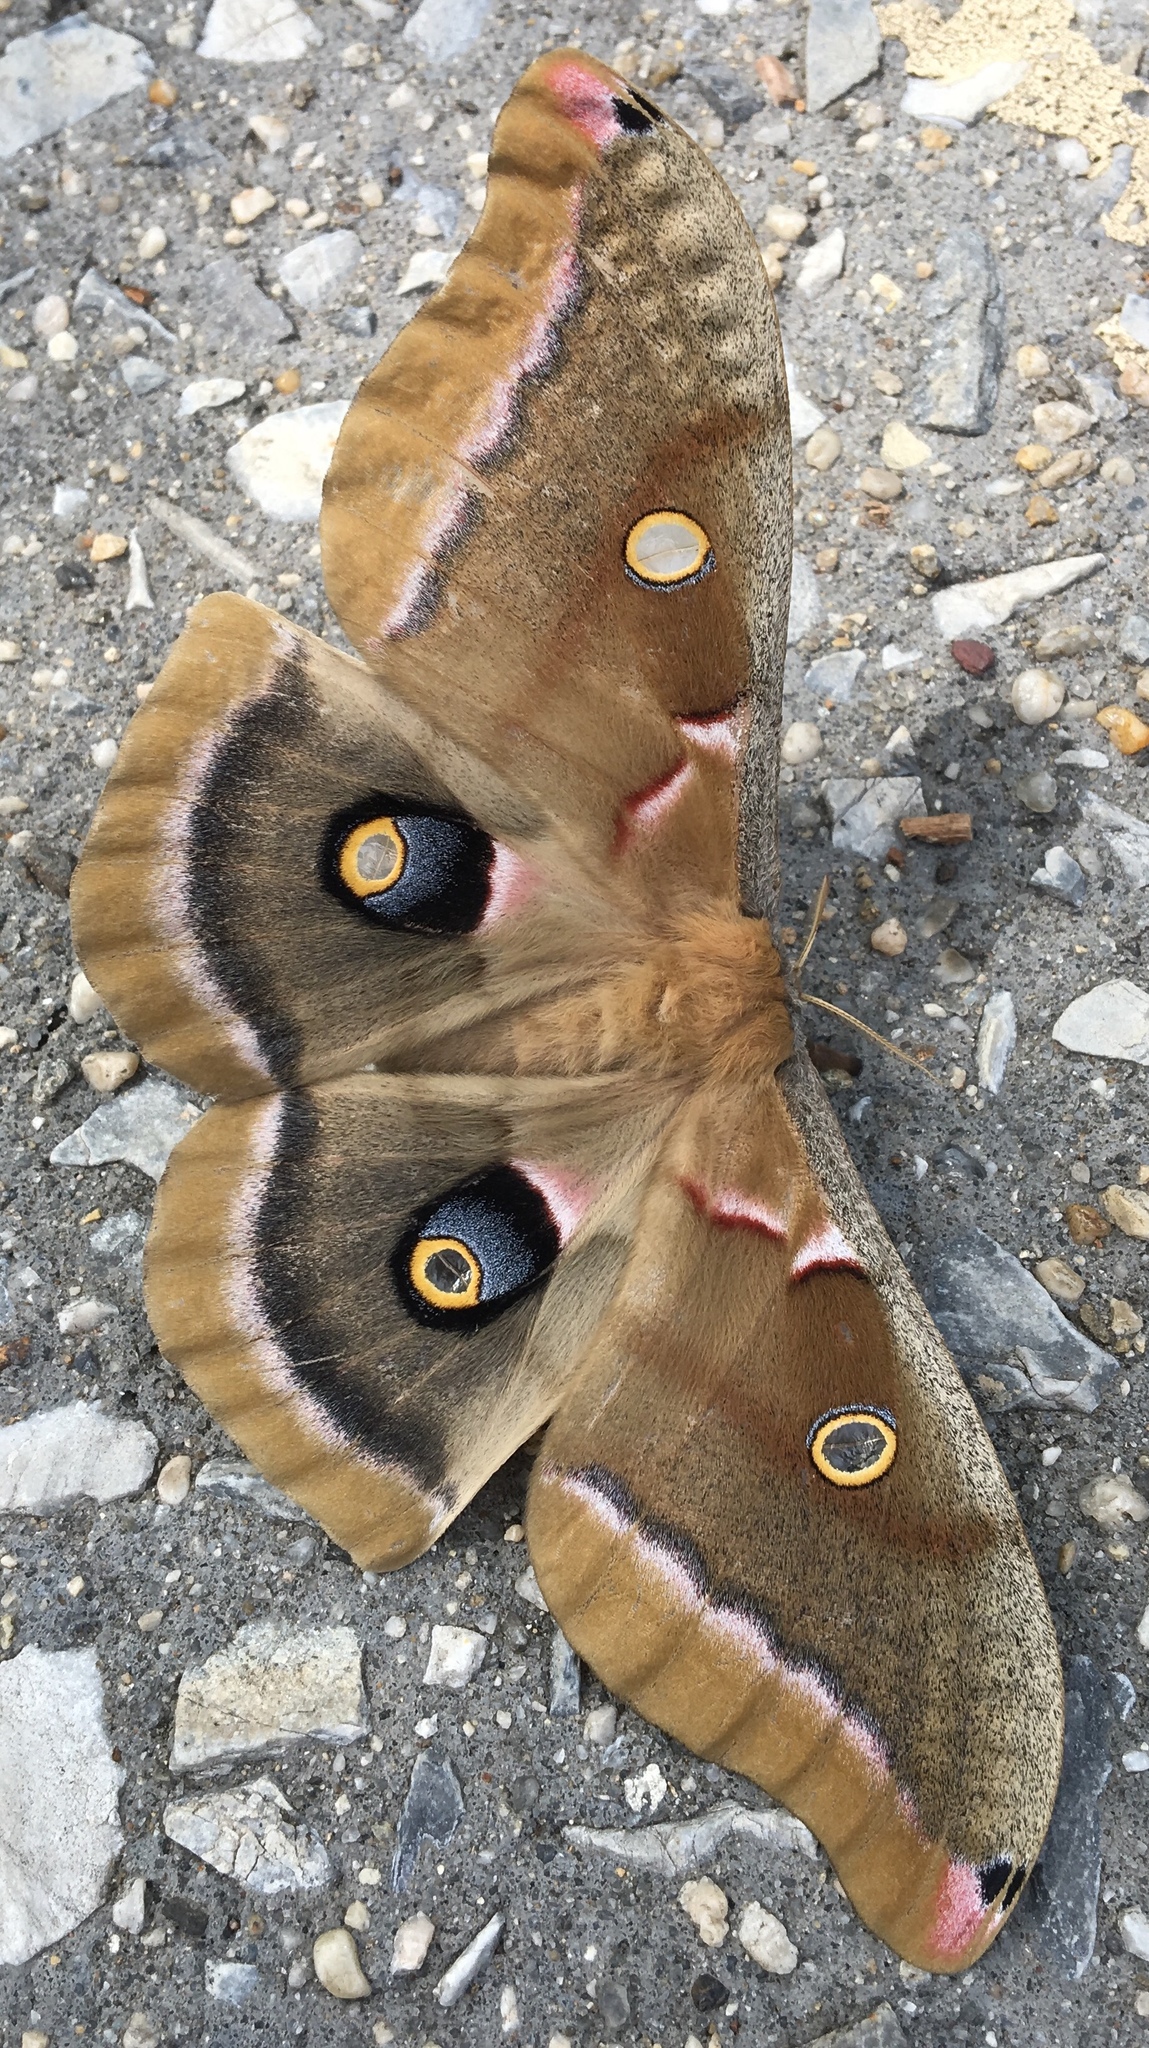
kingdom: Animalia
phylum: Arthropoda
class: Insecta
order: Lepidoptera
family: Saturniidae
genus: Antheraea
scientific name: Antheraea polyphemus
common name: Polyphemus moth
